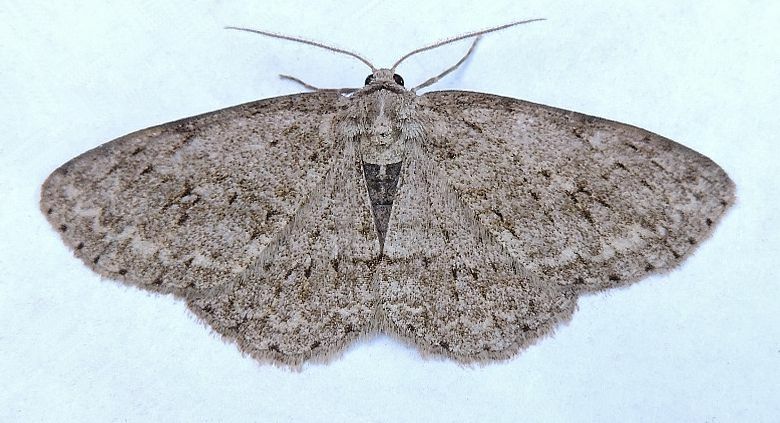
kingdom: Animalia
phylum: Arthropoda
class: Insecta
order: Lepidoptera
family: Geometridae
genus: Ectropis
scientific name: Ectropis crepuscularia
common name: Engrailed
